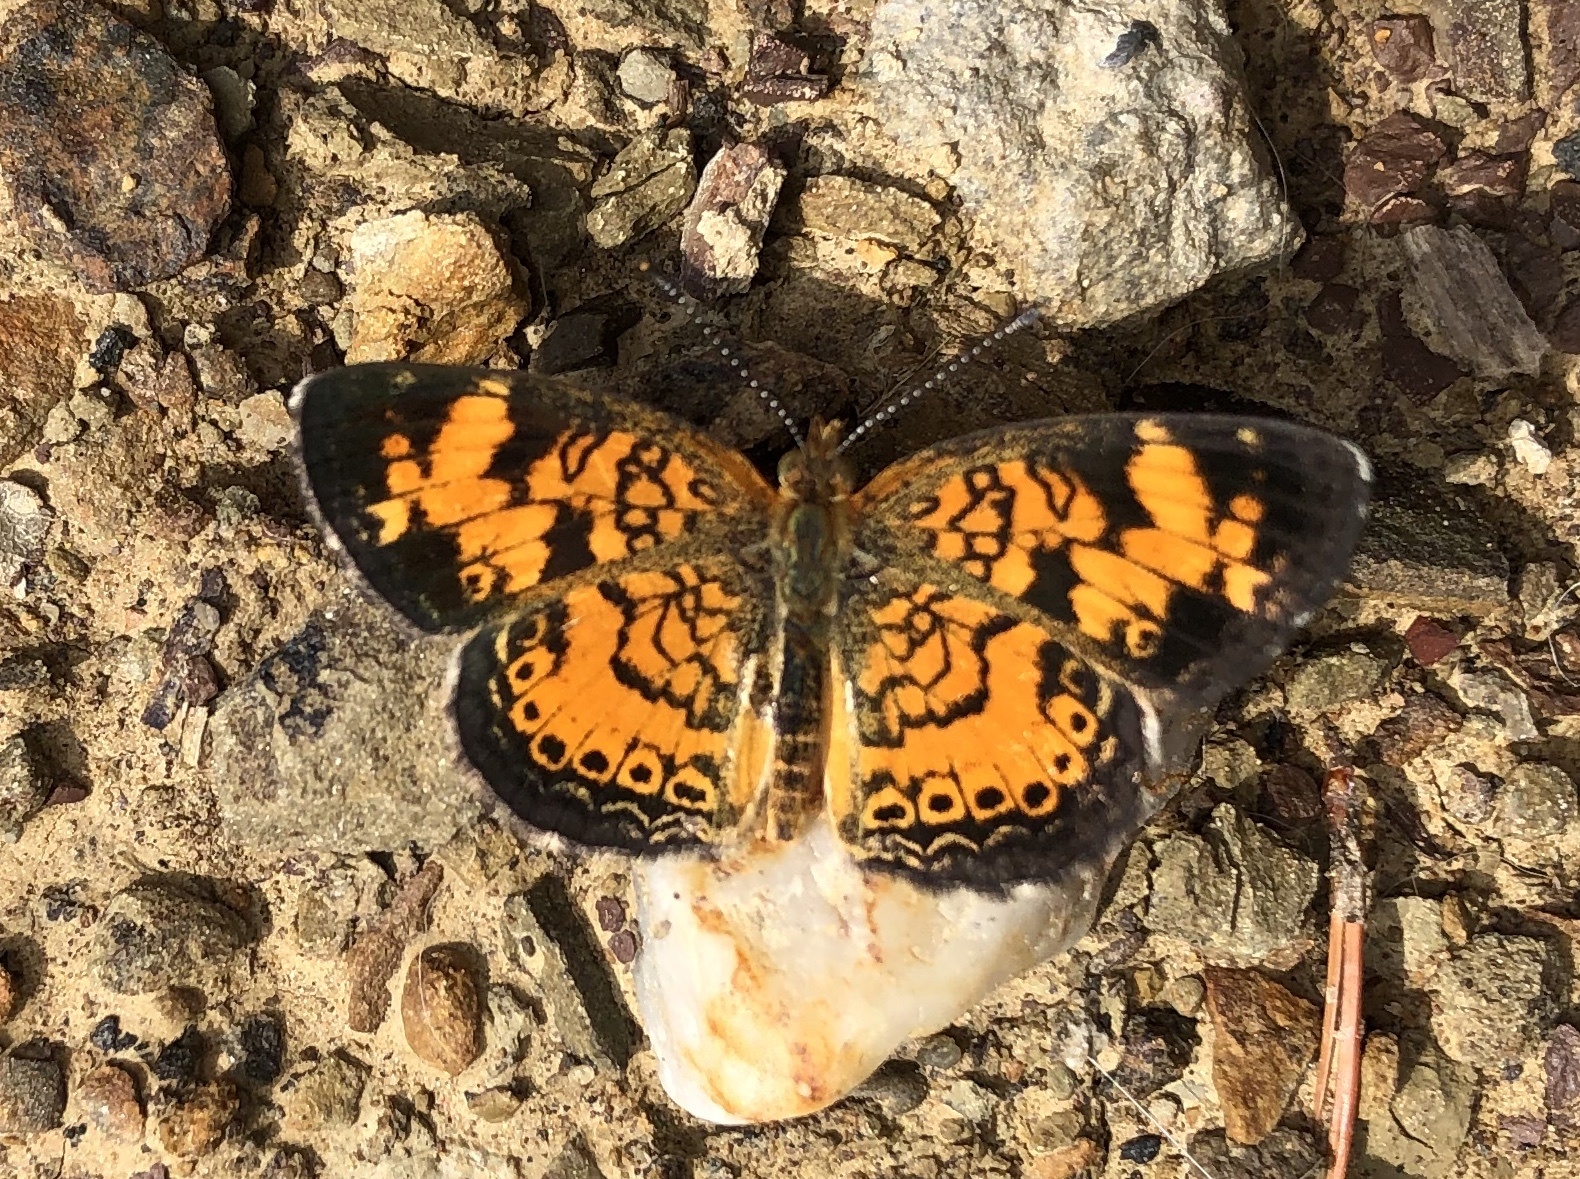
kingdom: Animalia
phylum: Arthropoda
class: Insecta
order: Lepidoptera
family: Nymphalidae
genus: Phyciodes
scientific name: Phyciodes tharos
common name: Pearl crescent
